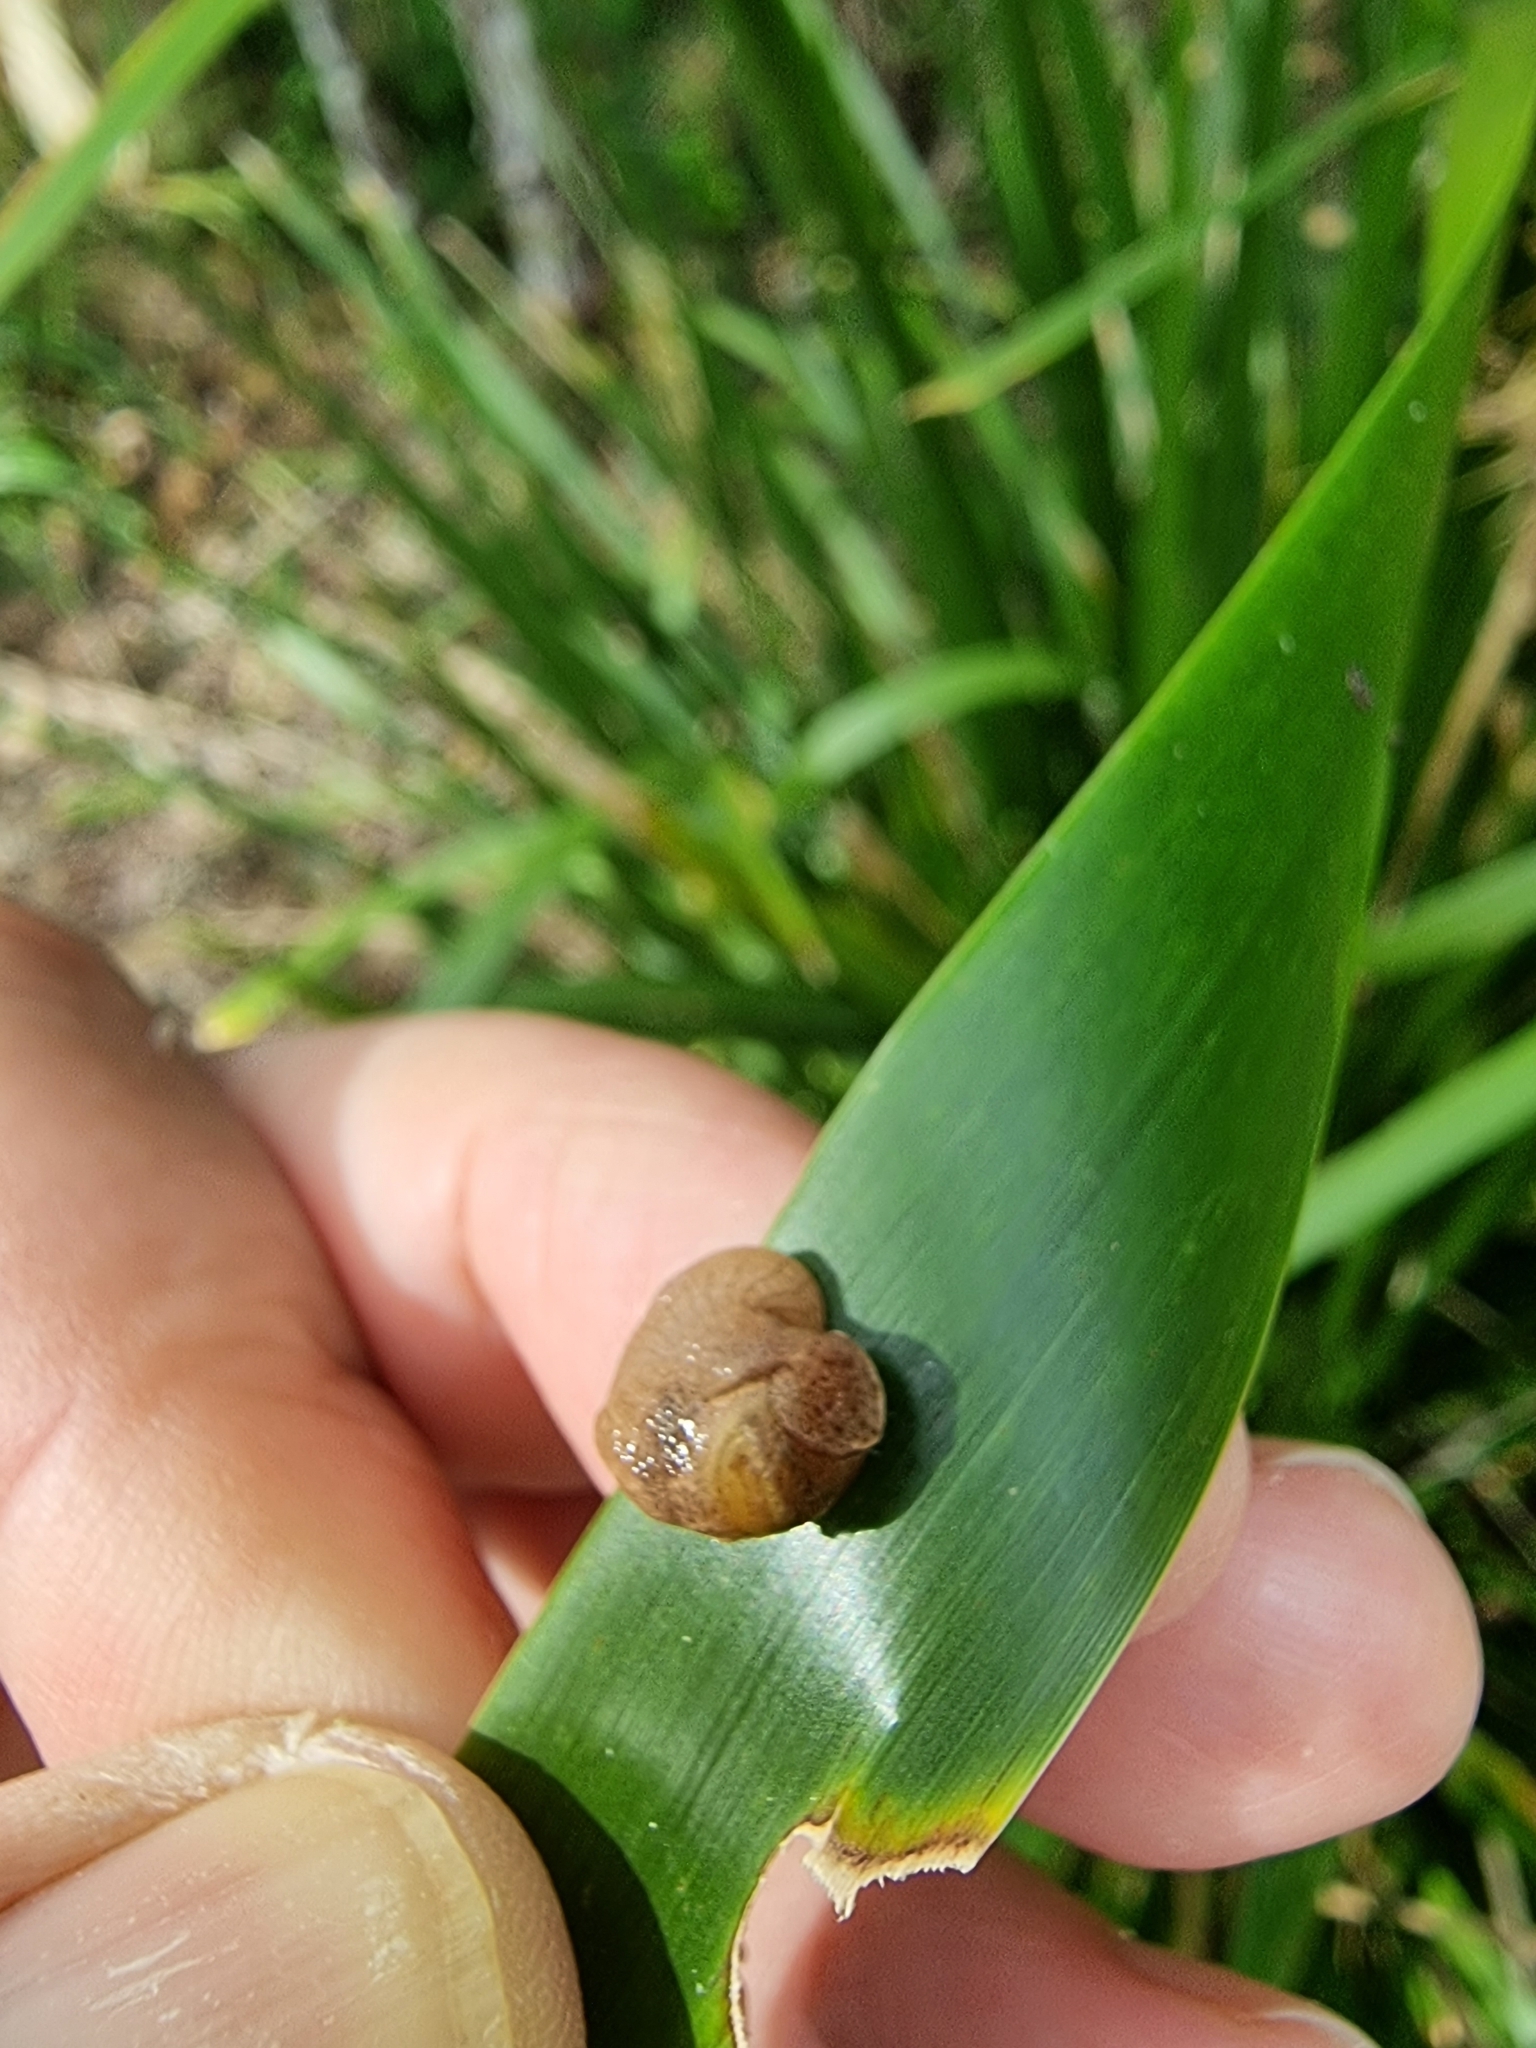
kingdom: Animalia
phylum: Mollusca
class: Gastropoda
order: Stylommatophora
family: Helicarionidae
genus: Ubiquitarion
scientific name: Ubiquitarion iridis
